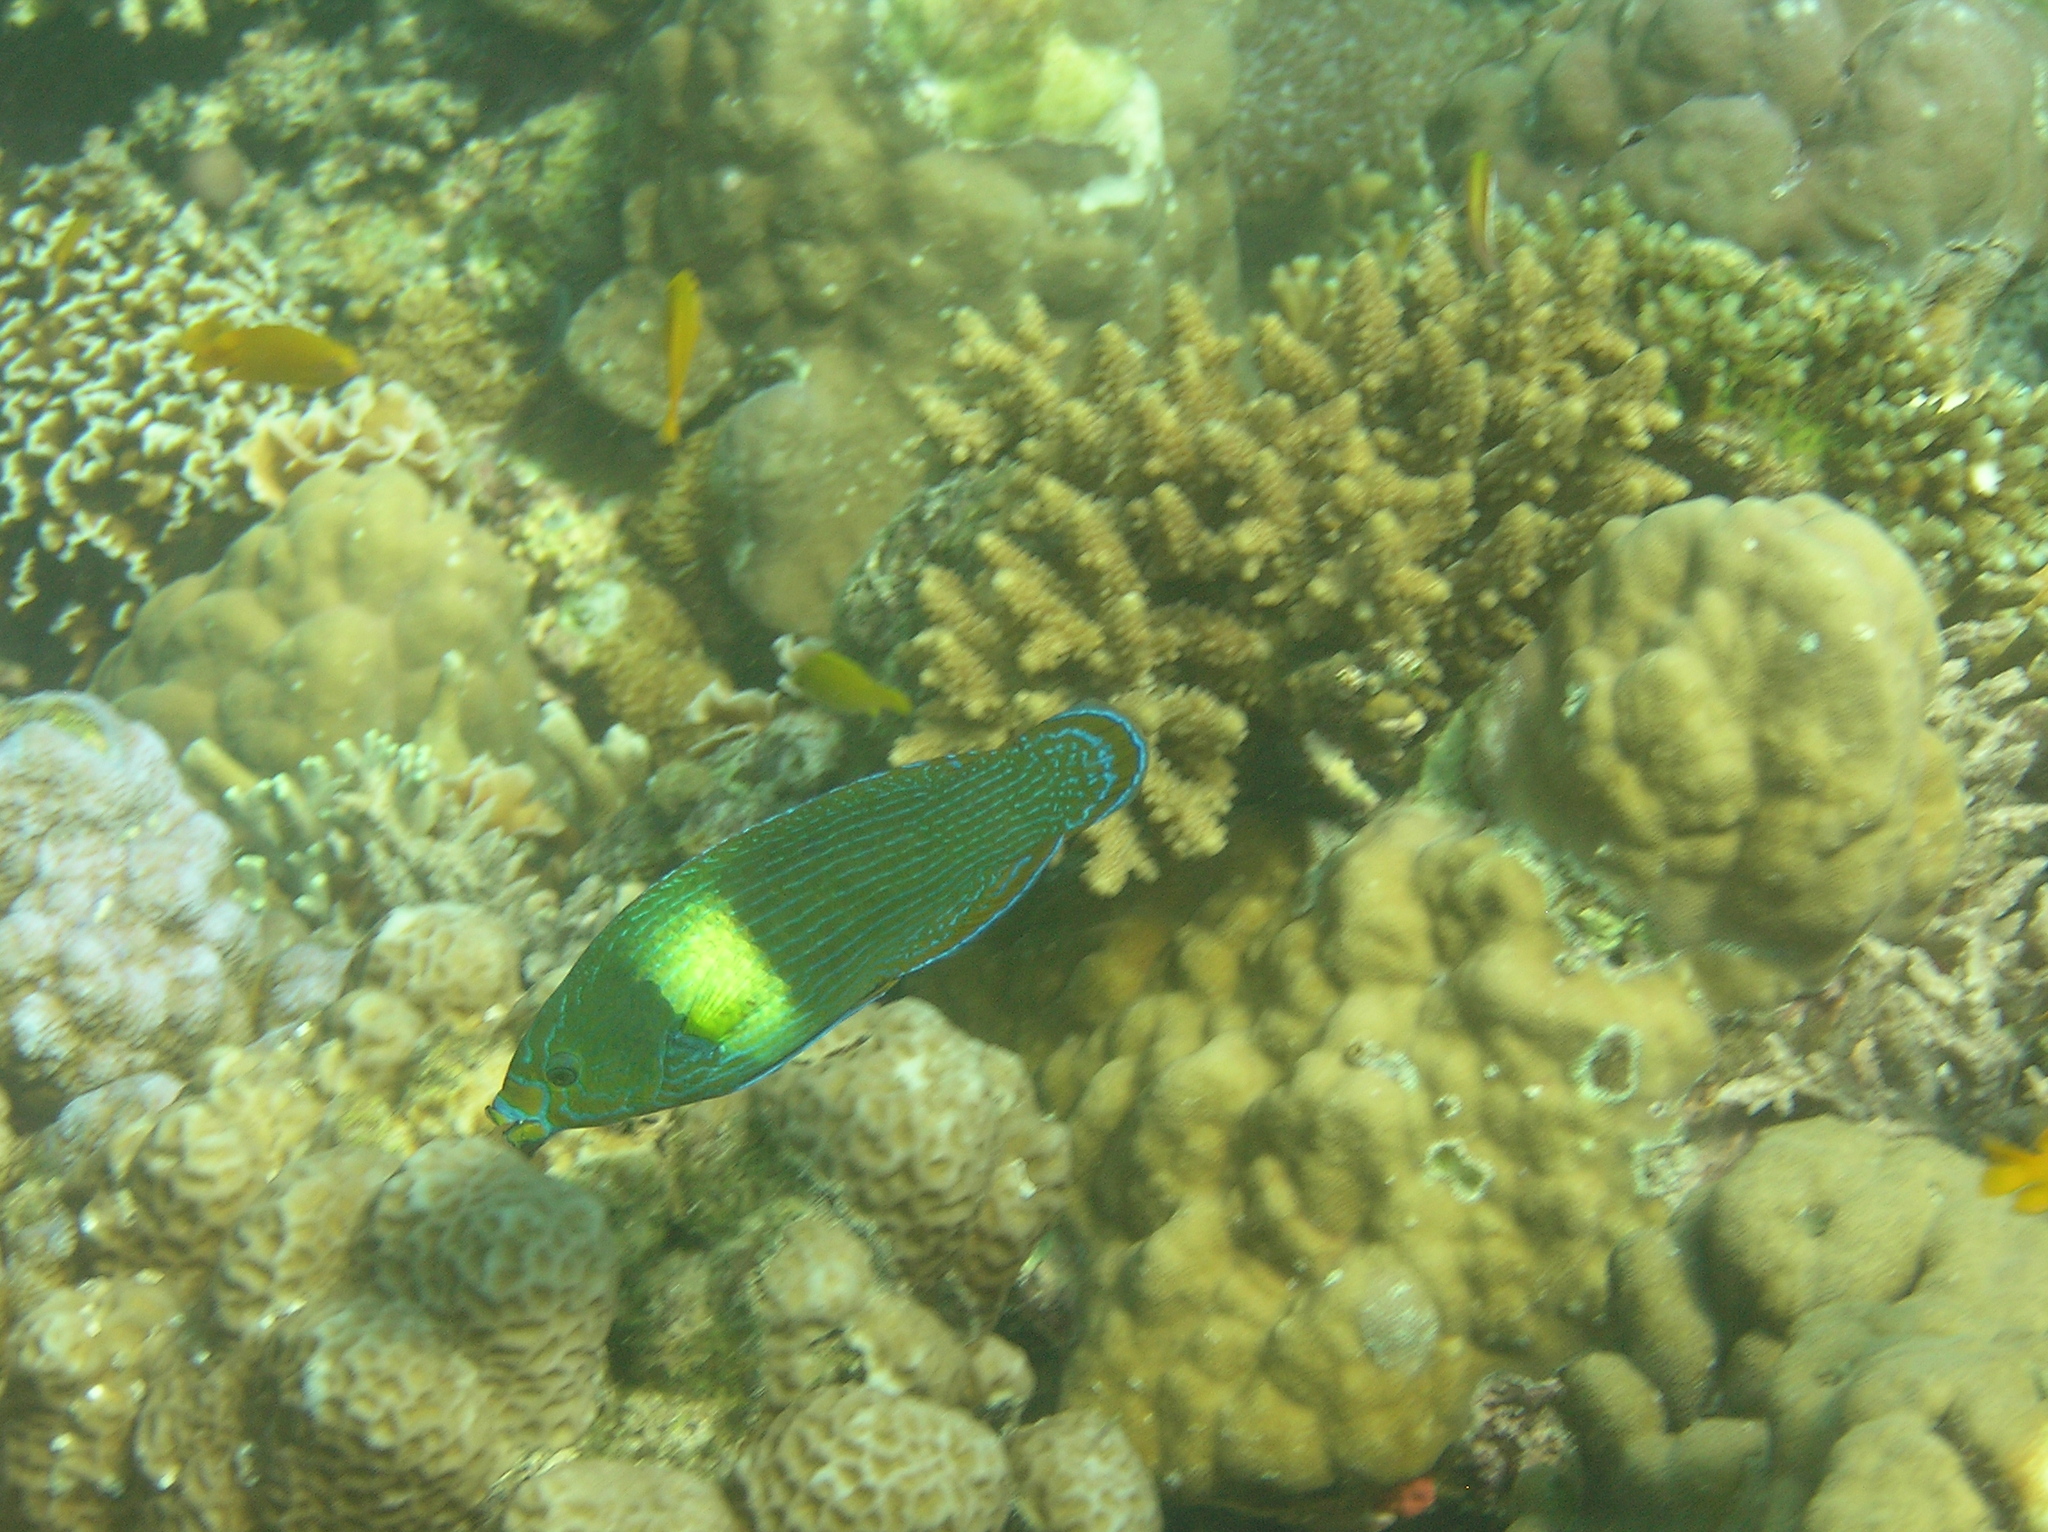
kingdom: Animalia
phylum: Chordata
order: Perciformes
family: Labridae
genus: Labrichthys
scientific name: Labrichthys unilineatus
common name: Onelined wrasse
